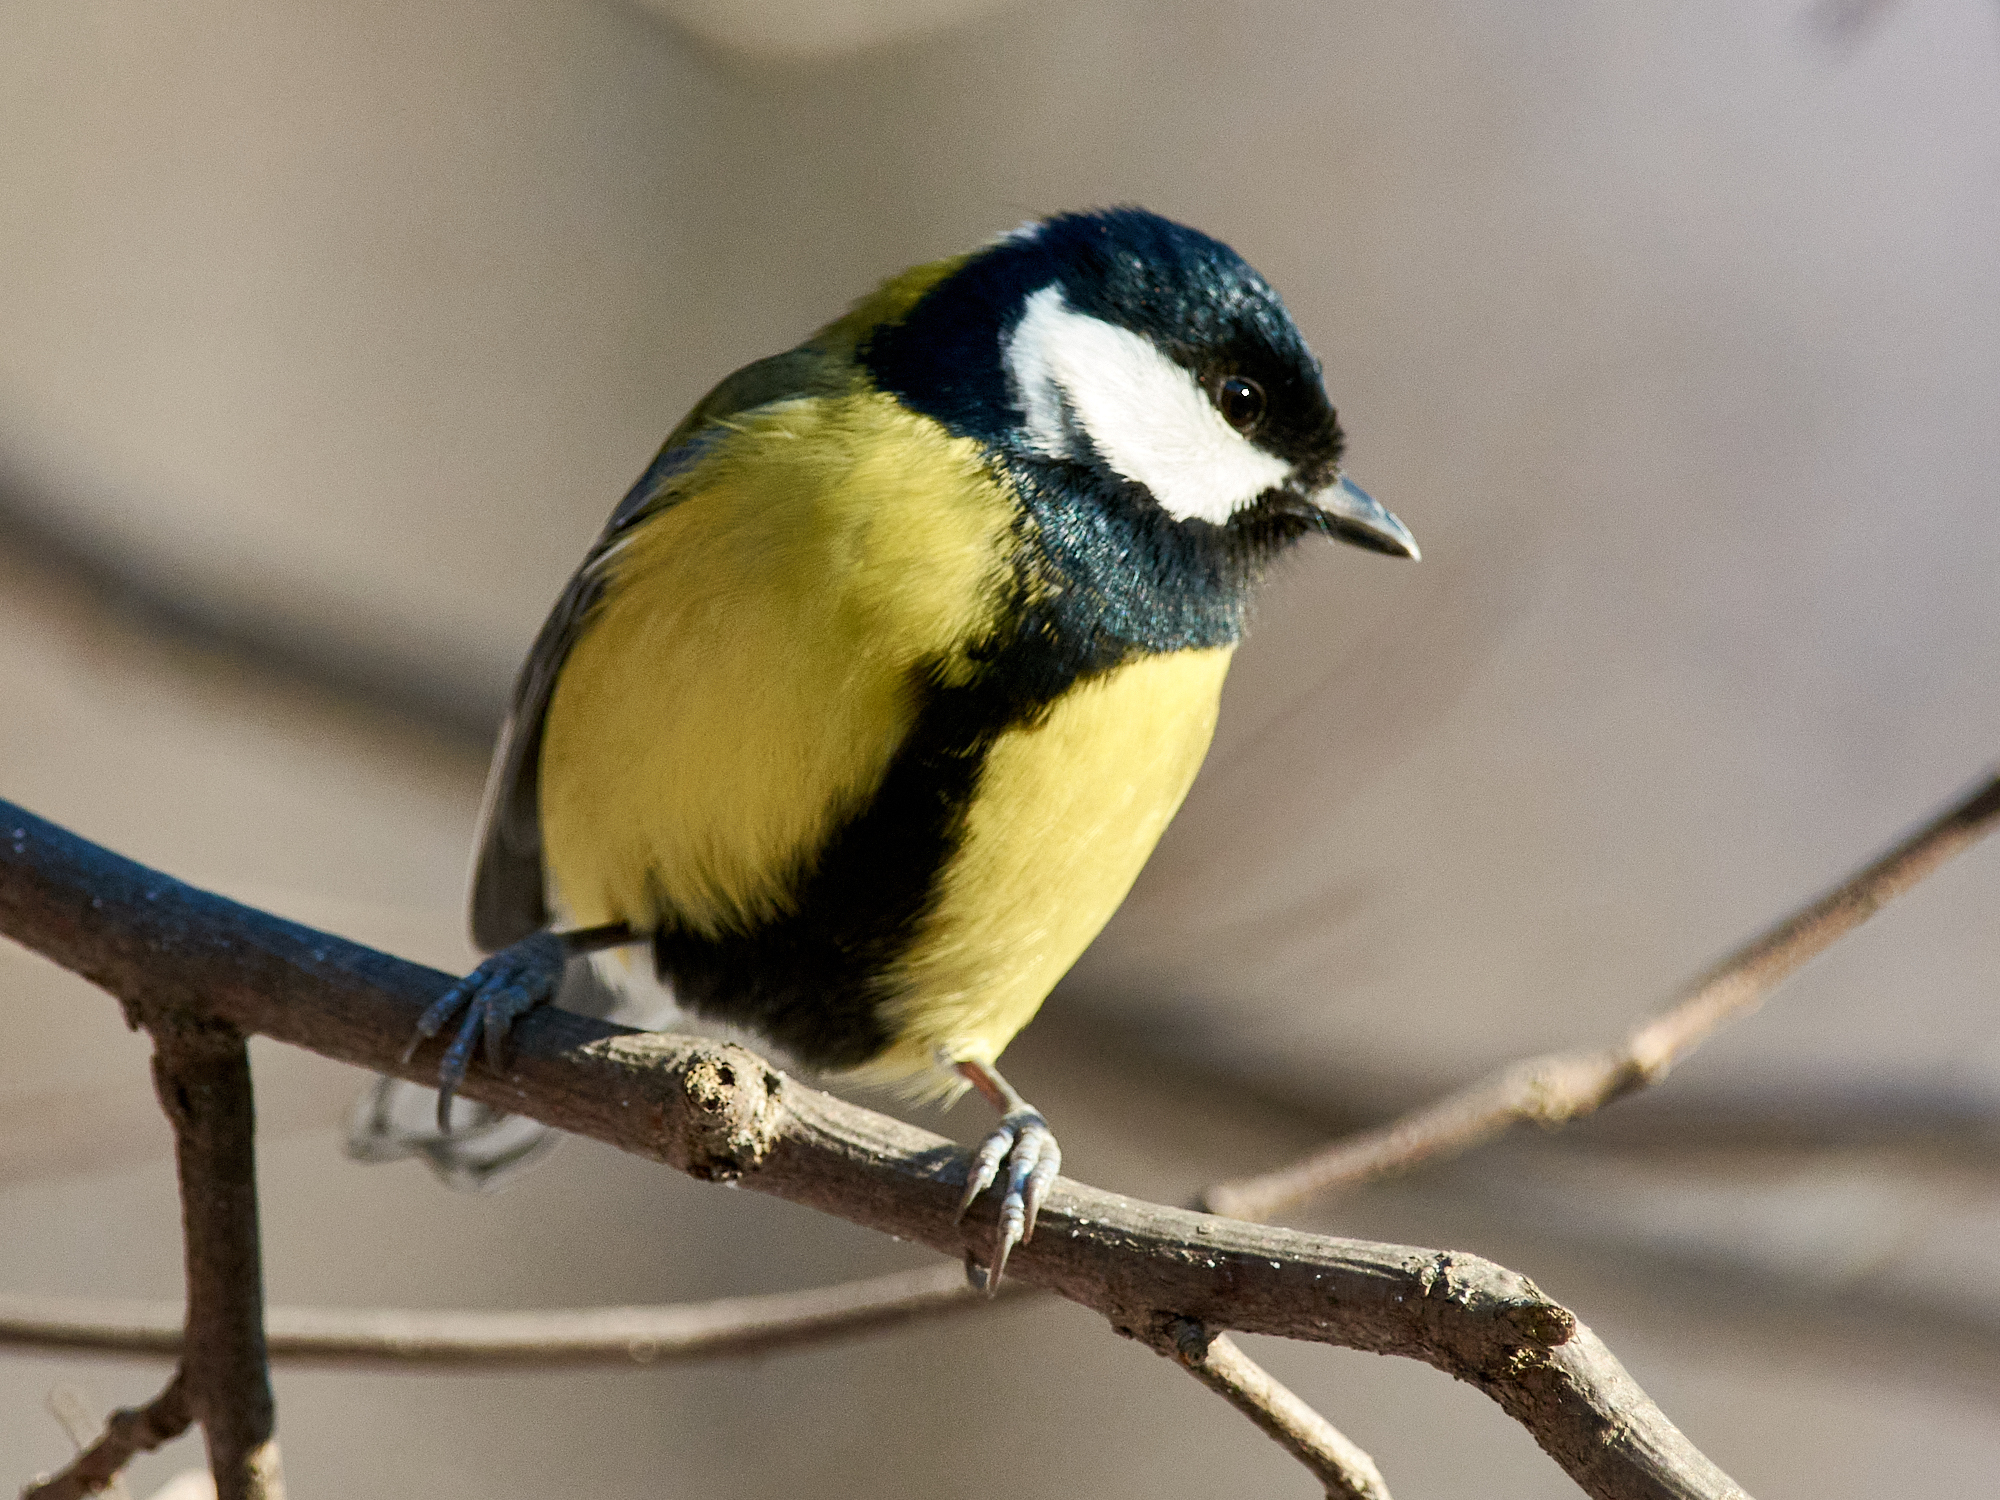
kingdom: Animalia
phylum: Chordata
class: Aves
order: Passeriformes
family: Paridae
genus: Parus
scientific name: Parus major
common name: Great tit
